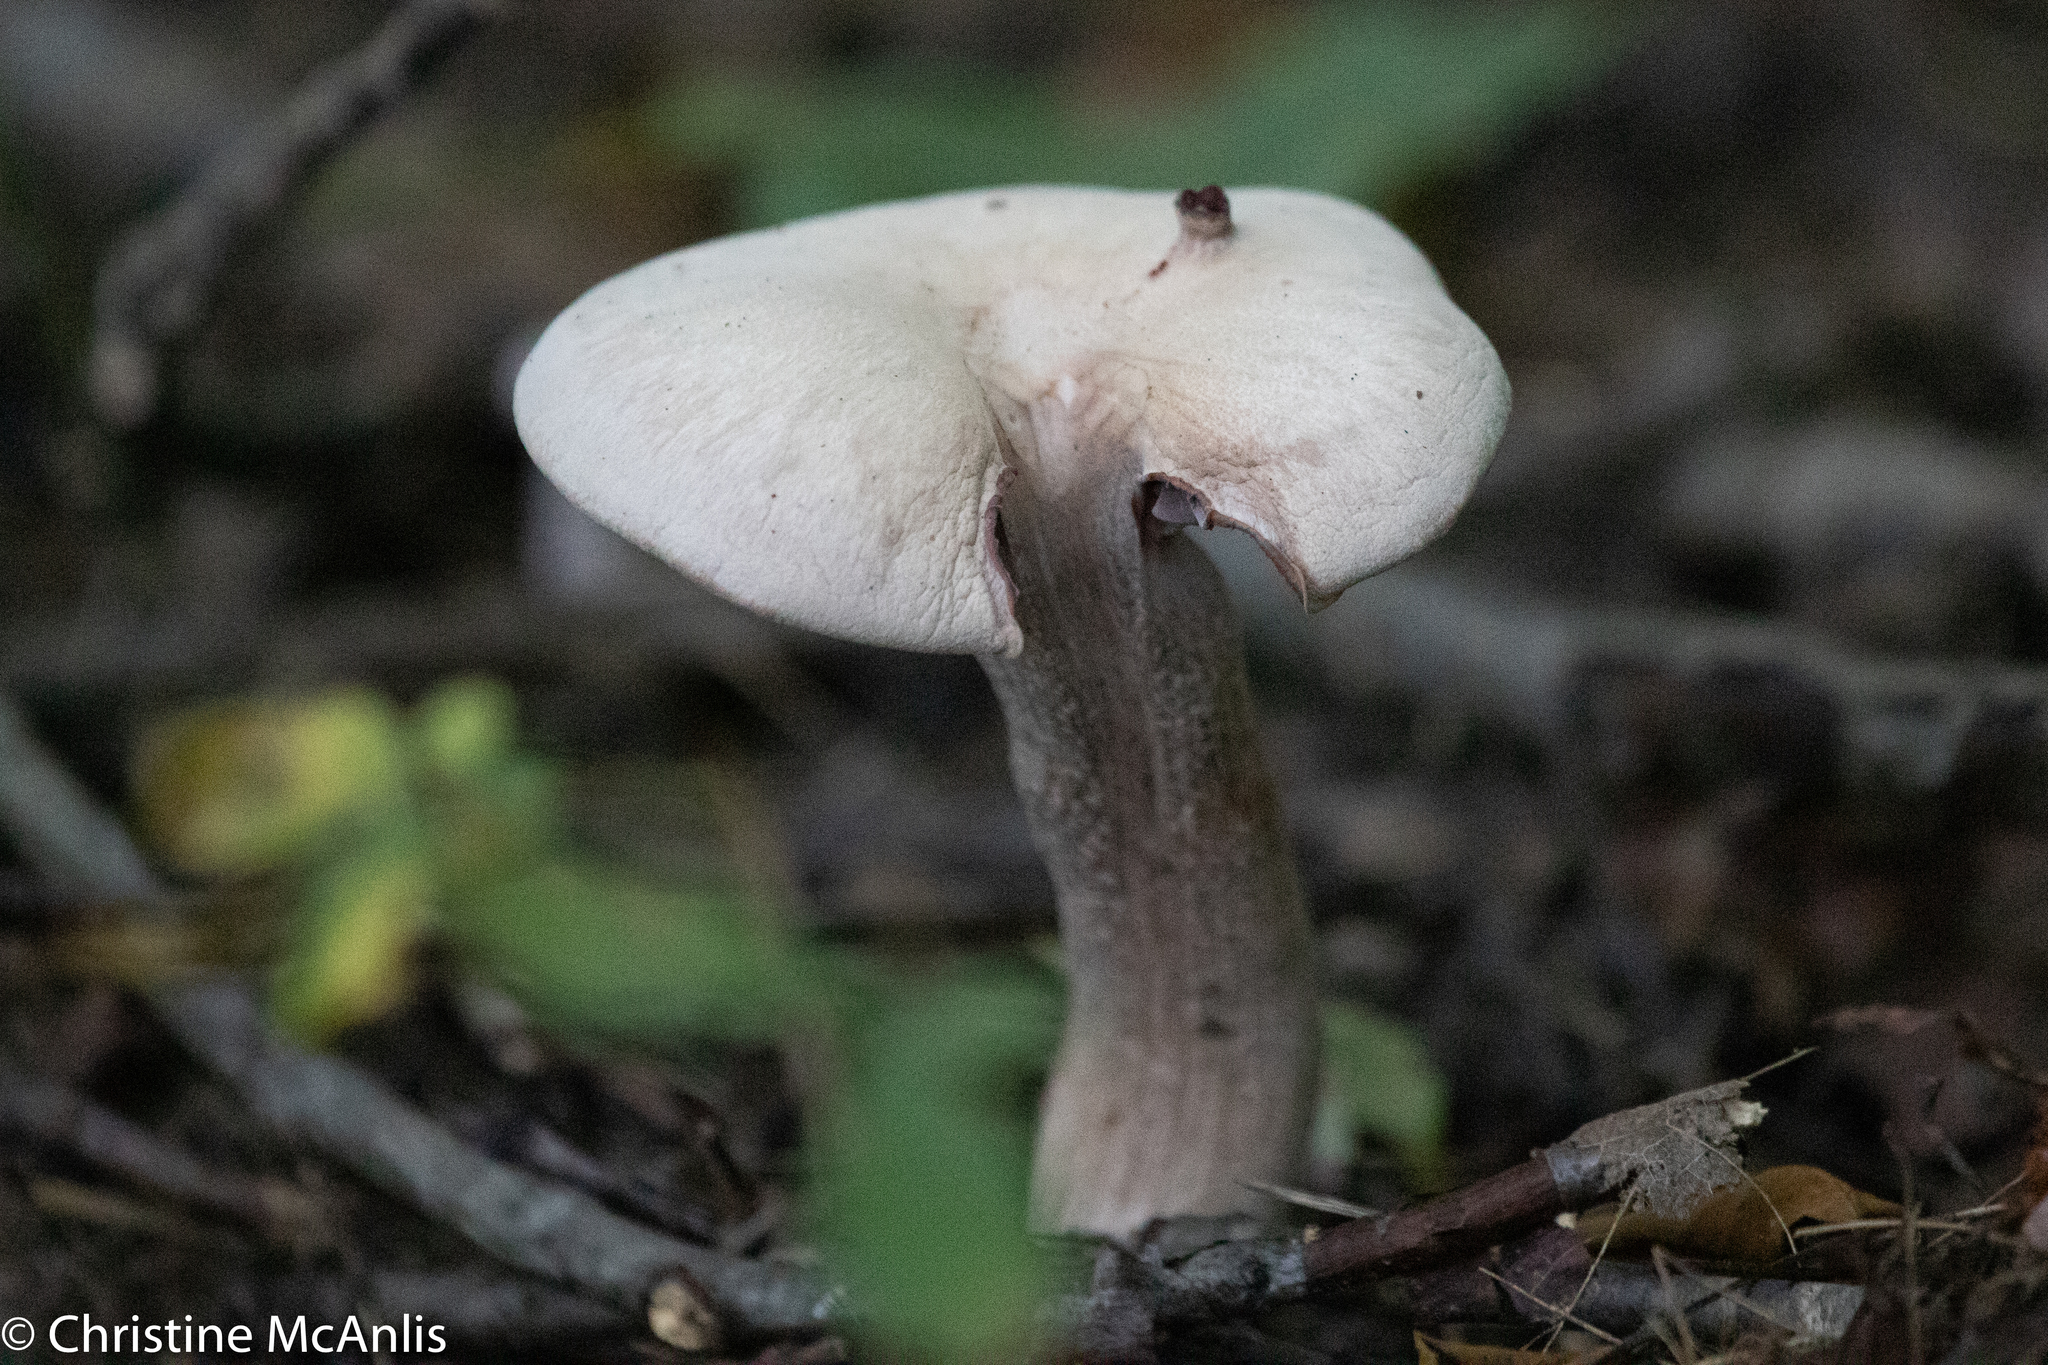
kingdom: Fungi
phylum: Basidiomycota
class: Agaricomycetes
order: Agaricales
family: Hydnangiaceae
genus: Laccaria
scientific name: Laccaria ochropurpurea
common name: Purple laccaria
